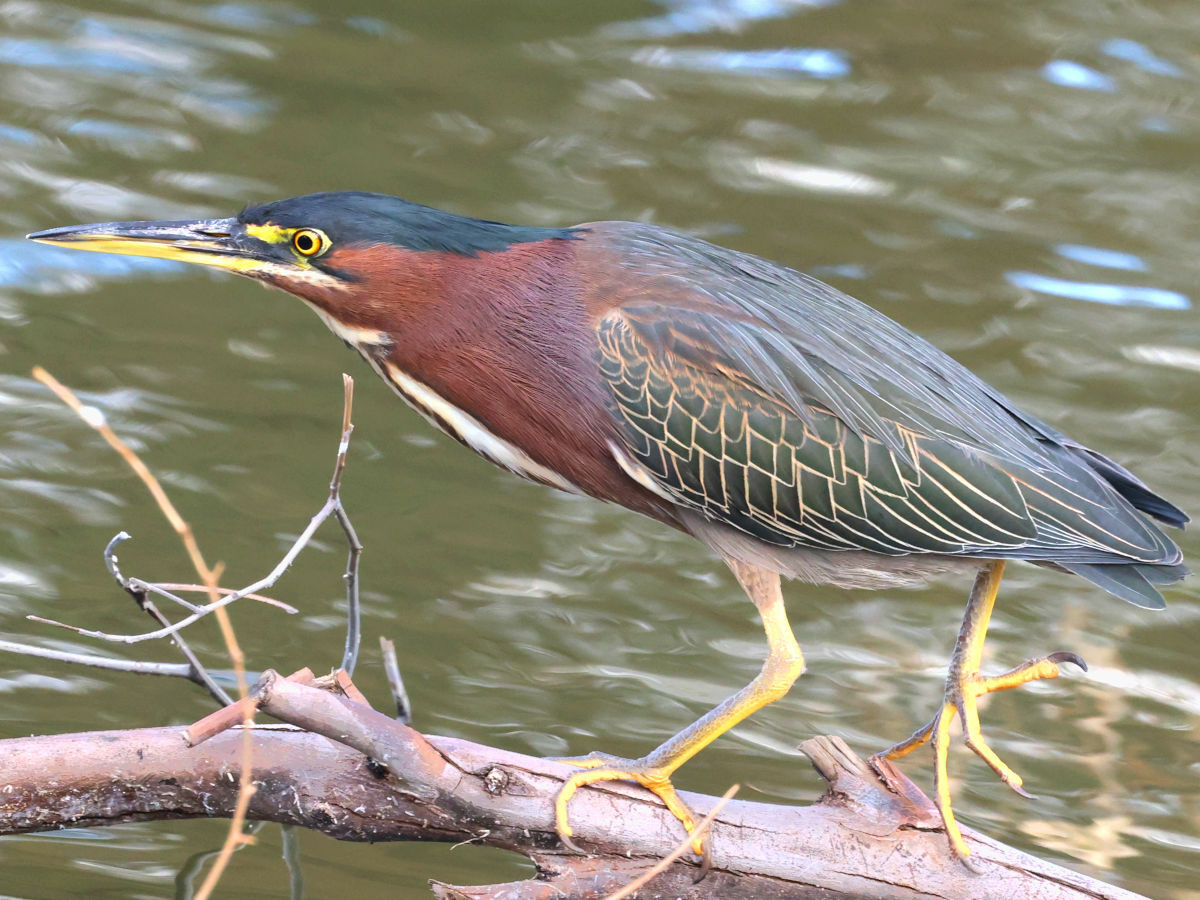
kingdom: Animalia
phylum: Chordata
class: Aves
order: Pelecaniformes
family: Ardeidae
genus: Butorides
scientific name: Butorides virescens
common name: Green heron
